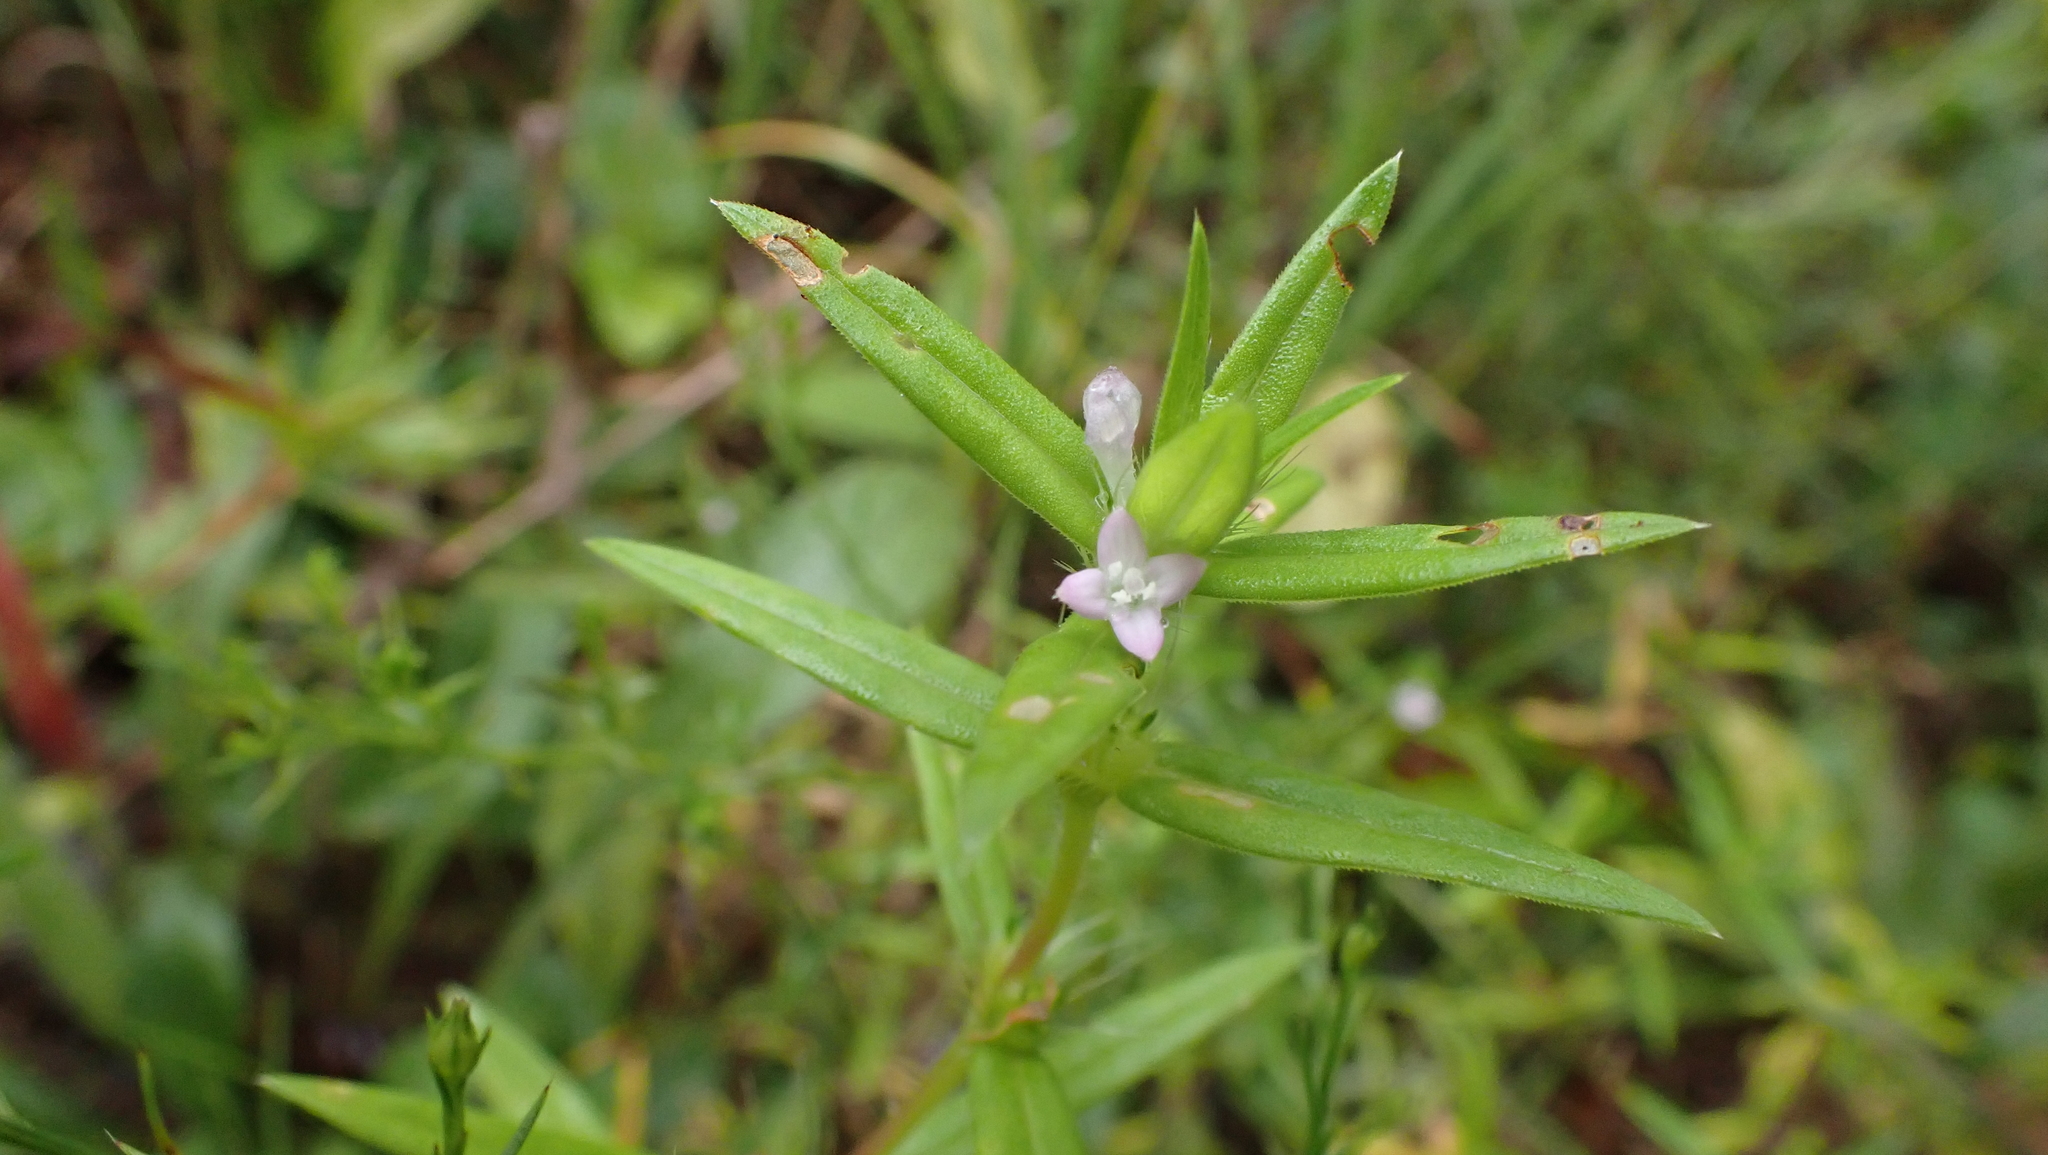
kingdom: Plantae
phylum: Tracheophyta
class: Magnoliopsida
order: Gentianales
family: Rubiaceae
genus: Hexasepalum
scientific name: Hexasepalum teres
